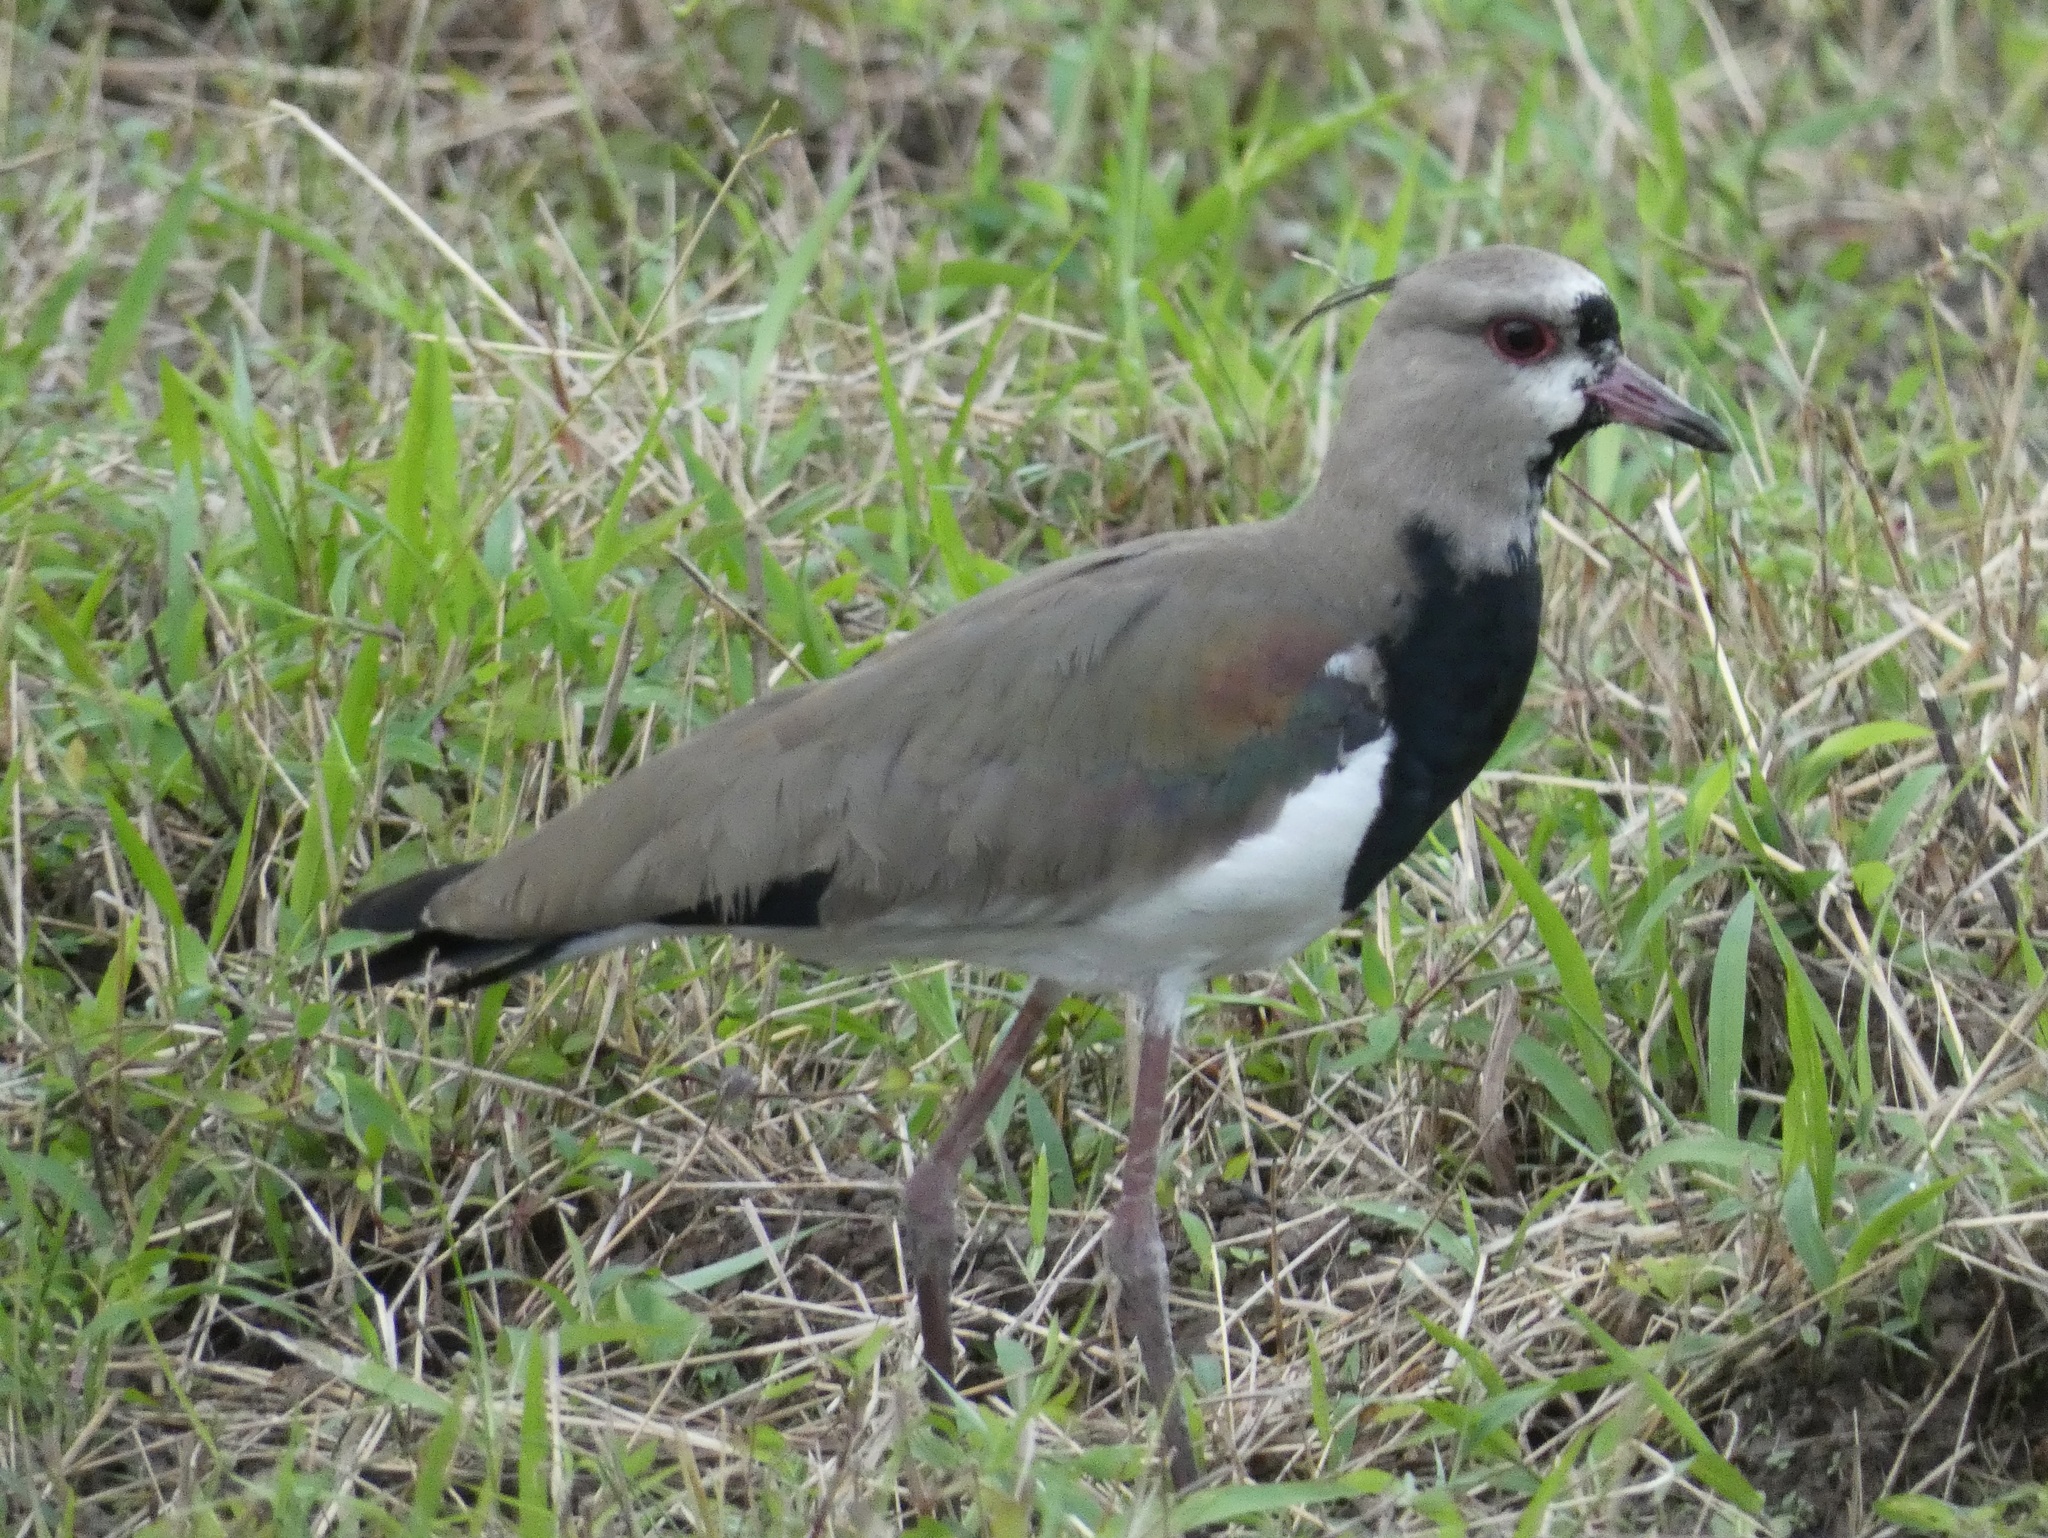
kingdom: Animalia
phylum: Chordata
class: Aves
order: Charadriiformes
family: Charadriidae
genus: Vanellus
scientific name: Vanellus chilensis
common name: Southern lapwing
